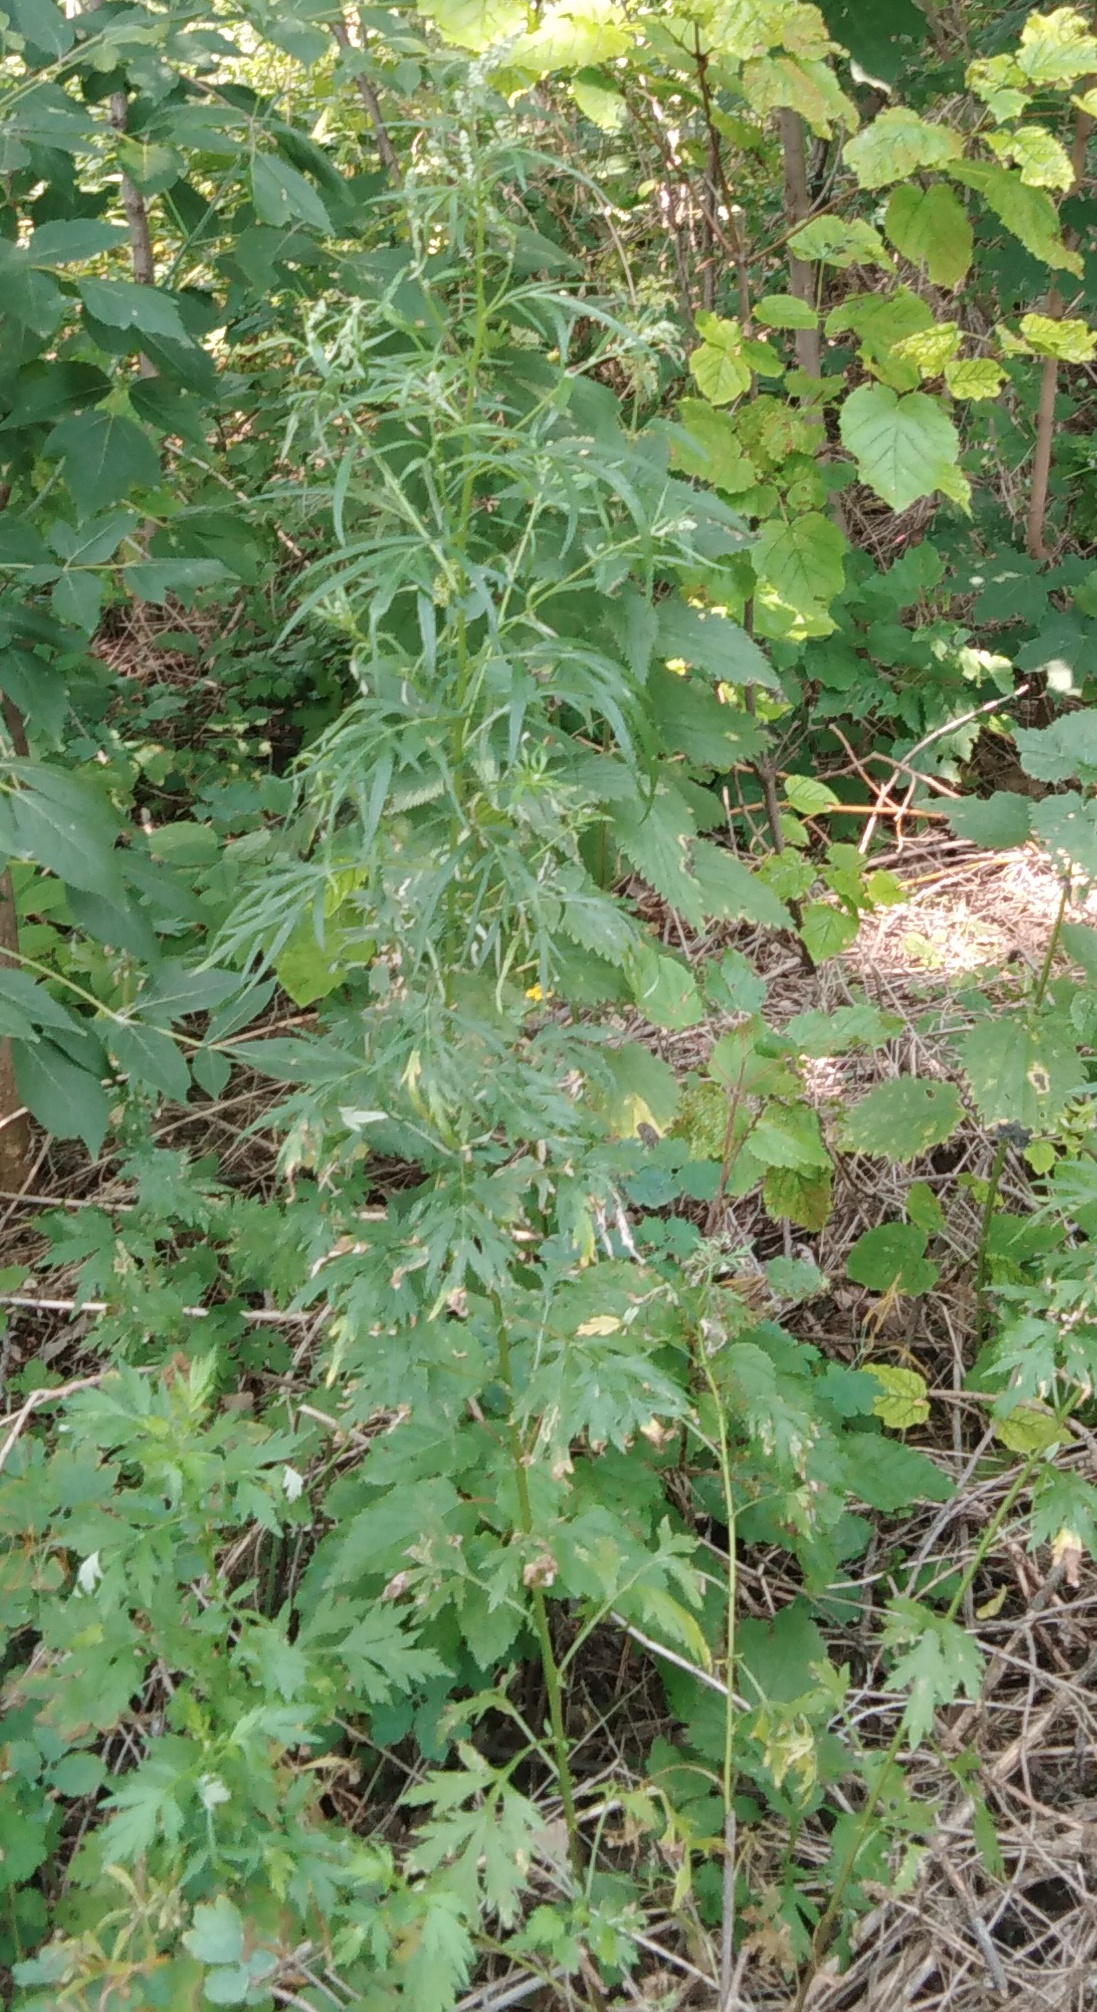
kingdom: Plantae
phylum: Tracheophyta
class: Magnoliopsida
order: Asterales
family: Asteraceae
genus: Artemisia
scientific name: Artemisia vulgaris
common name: Mugwort
